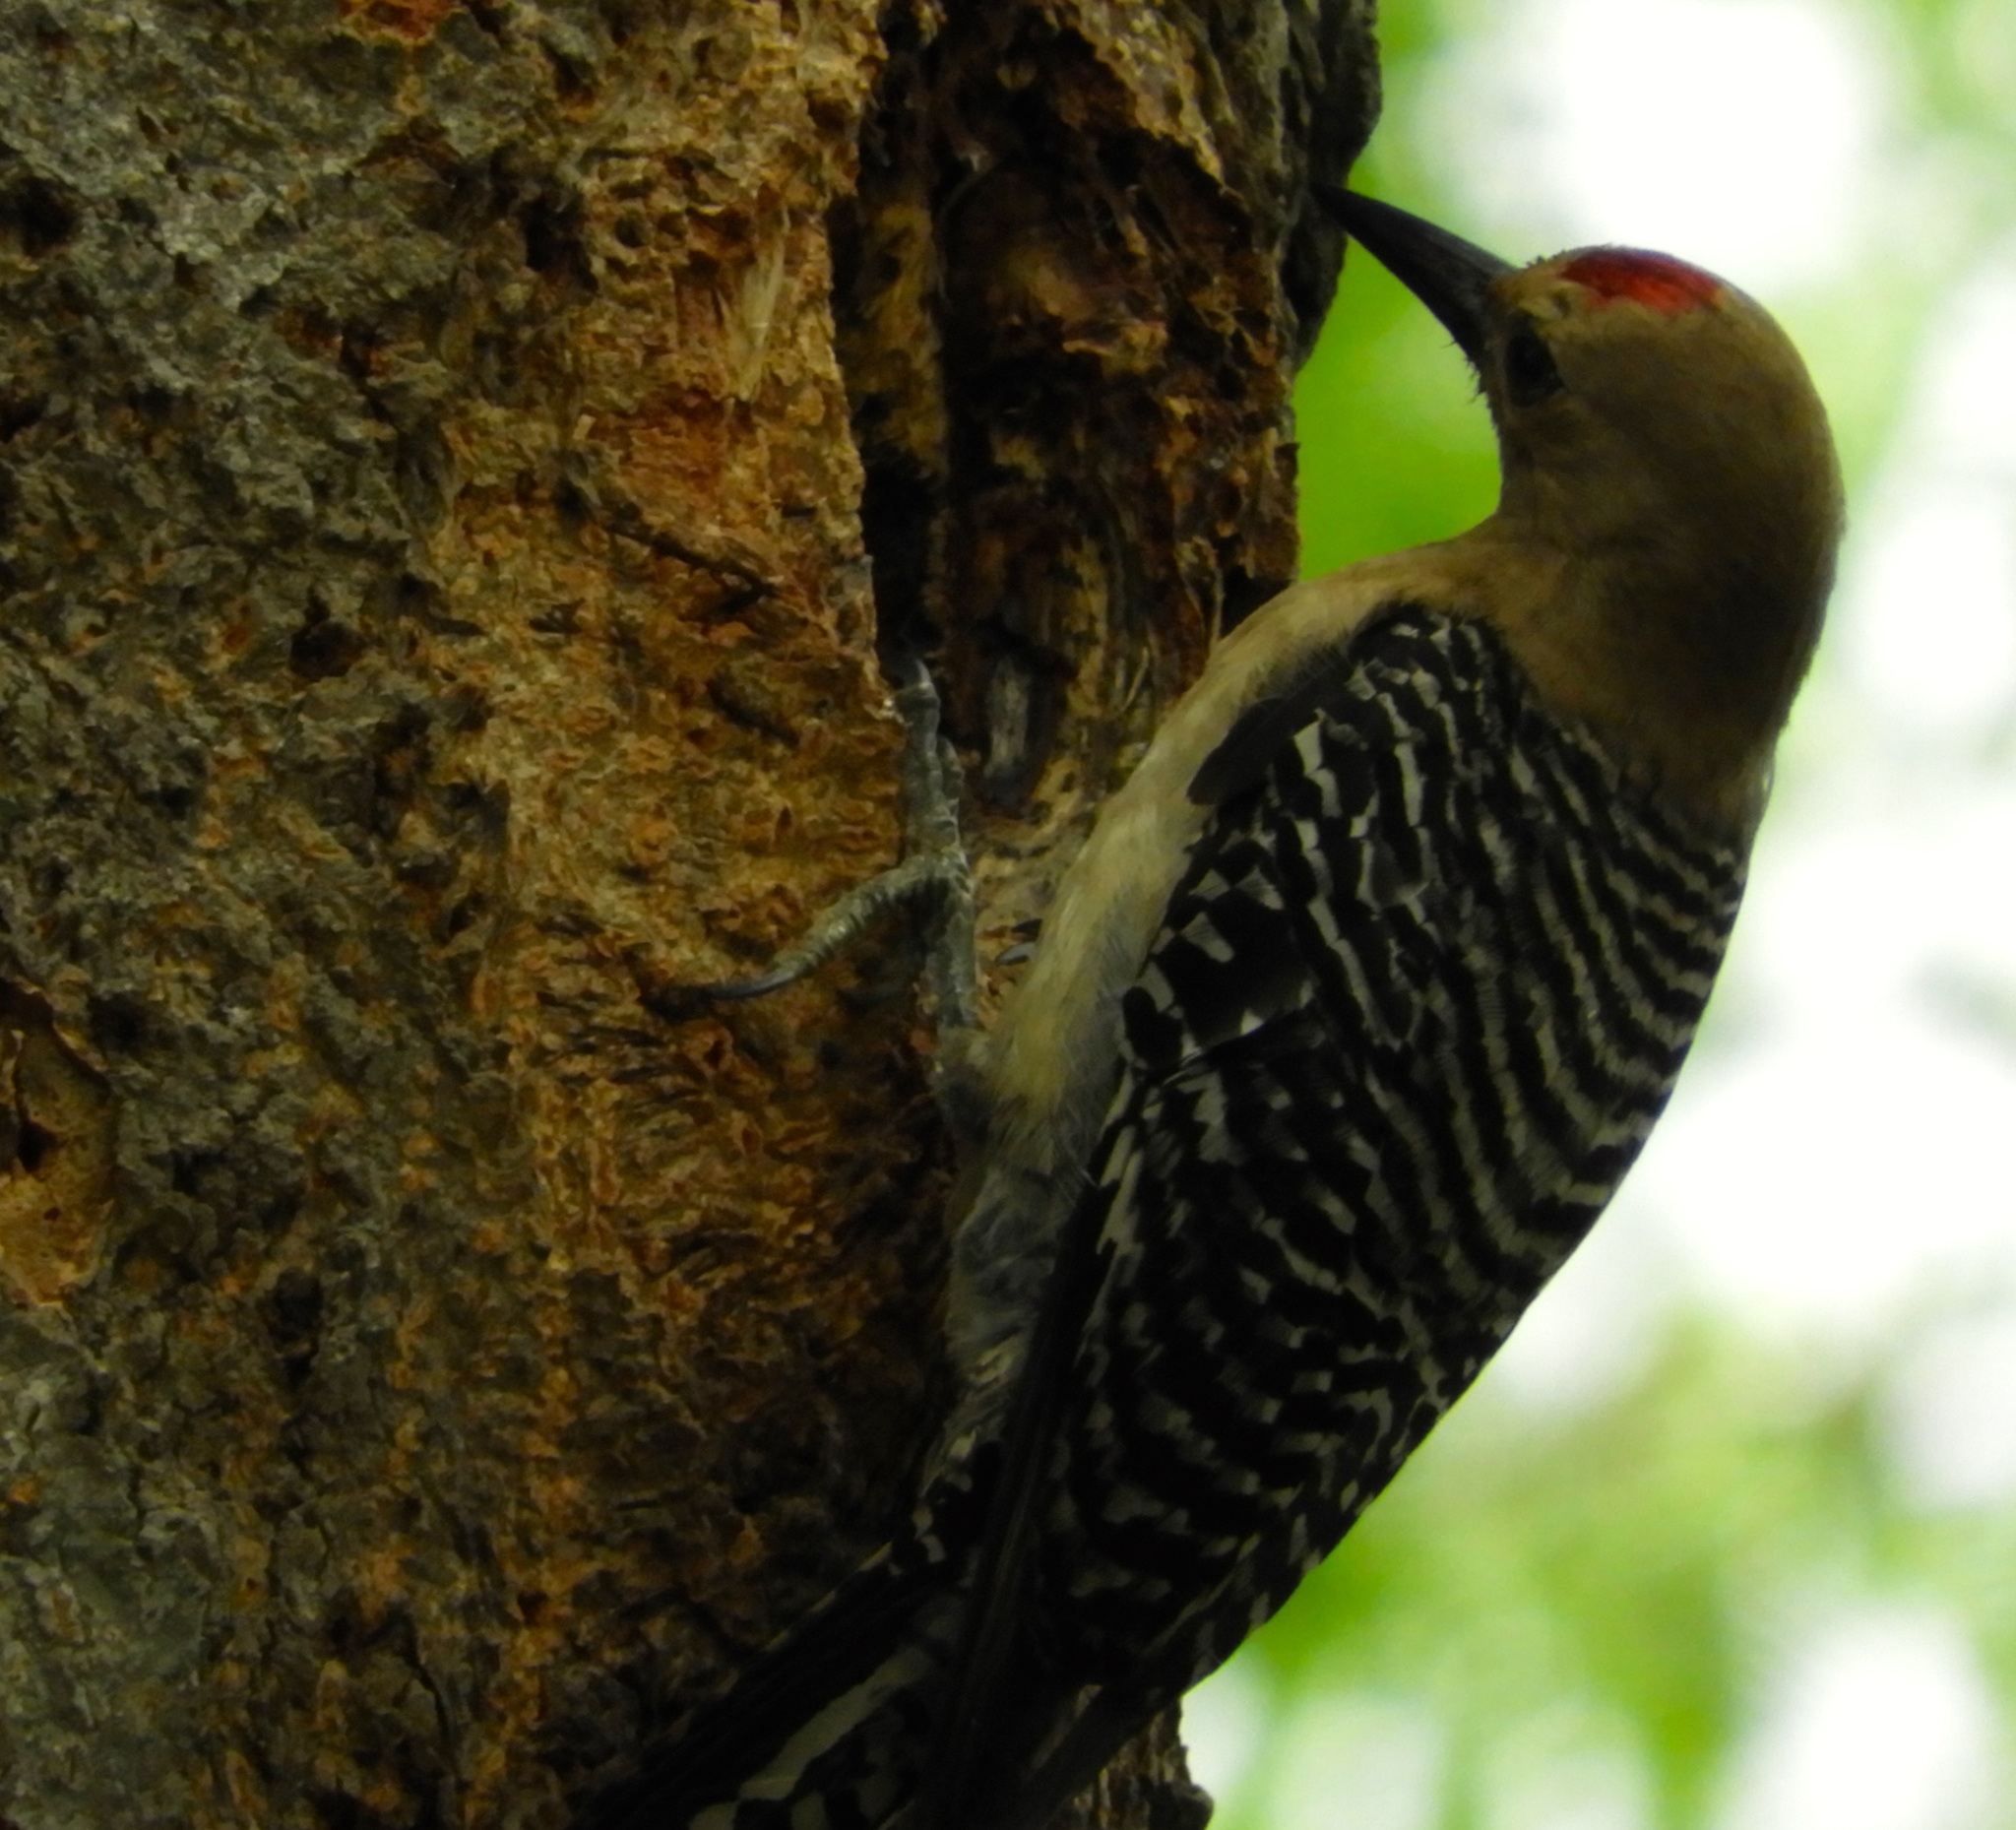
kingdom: Animalia
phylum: Chordata
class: Aves
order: Piciformes
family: Picidae
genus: Melanerpes
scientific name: Melanerpes uropygialis
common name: Gila woodpecker
